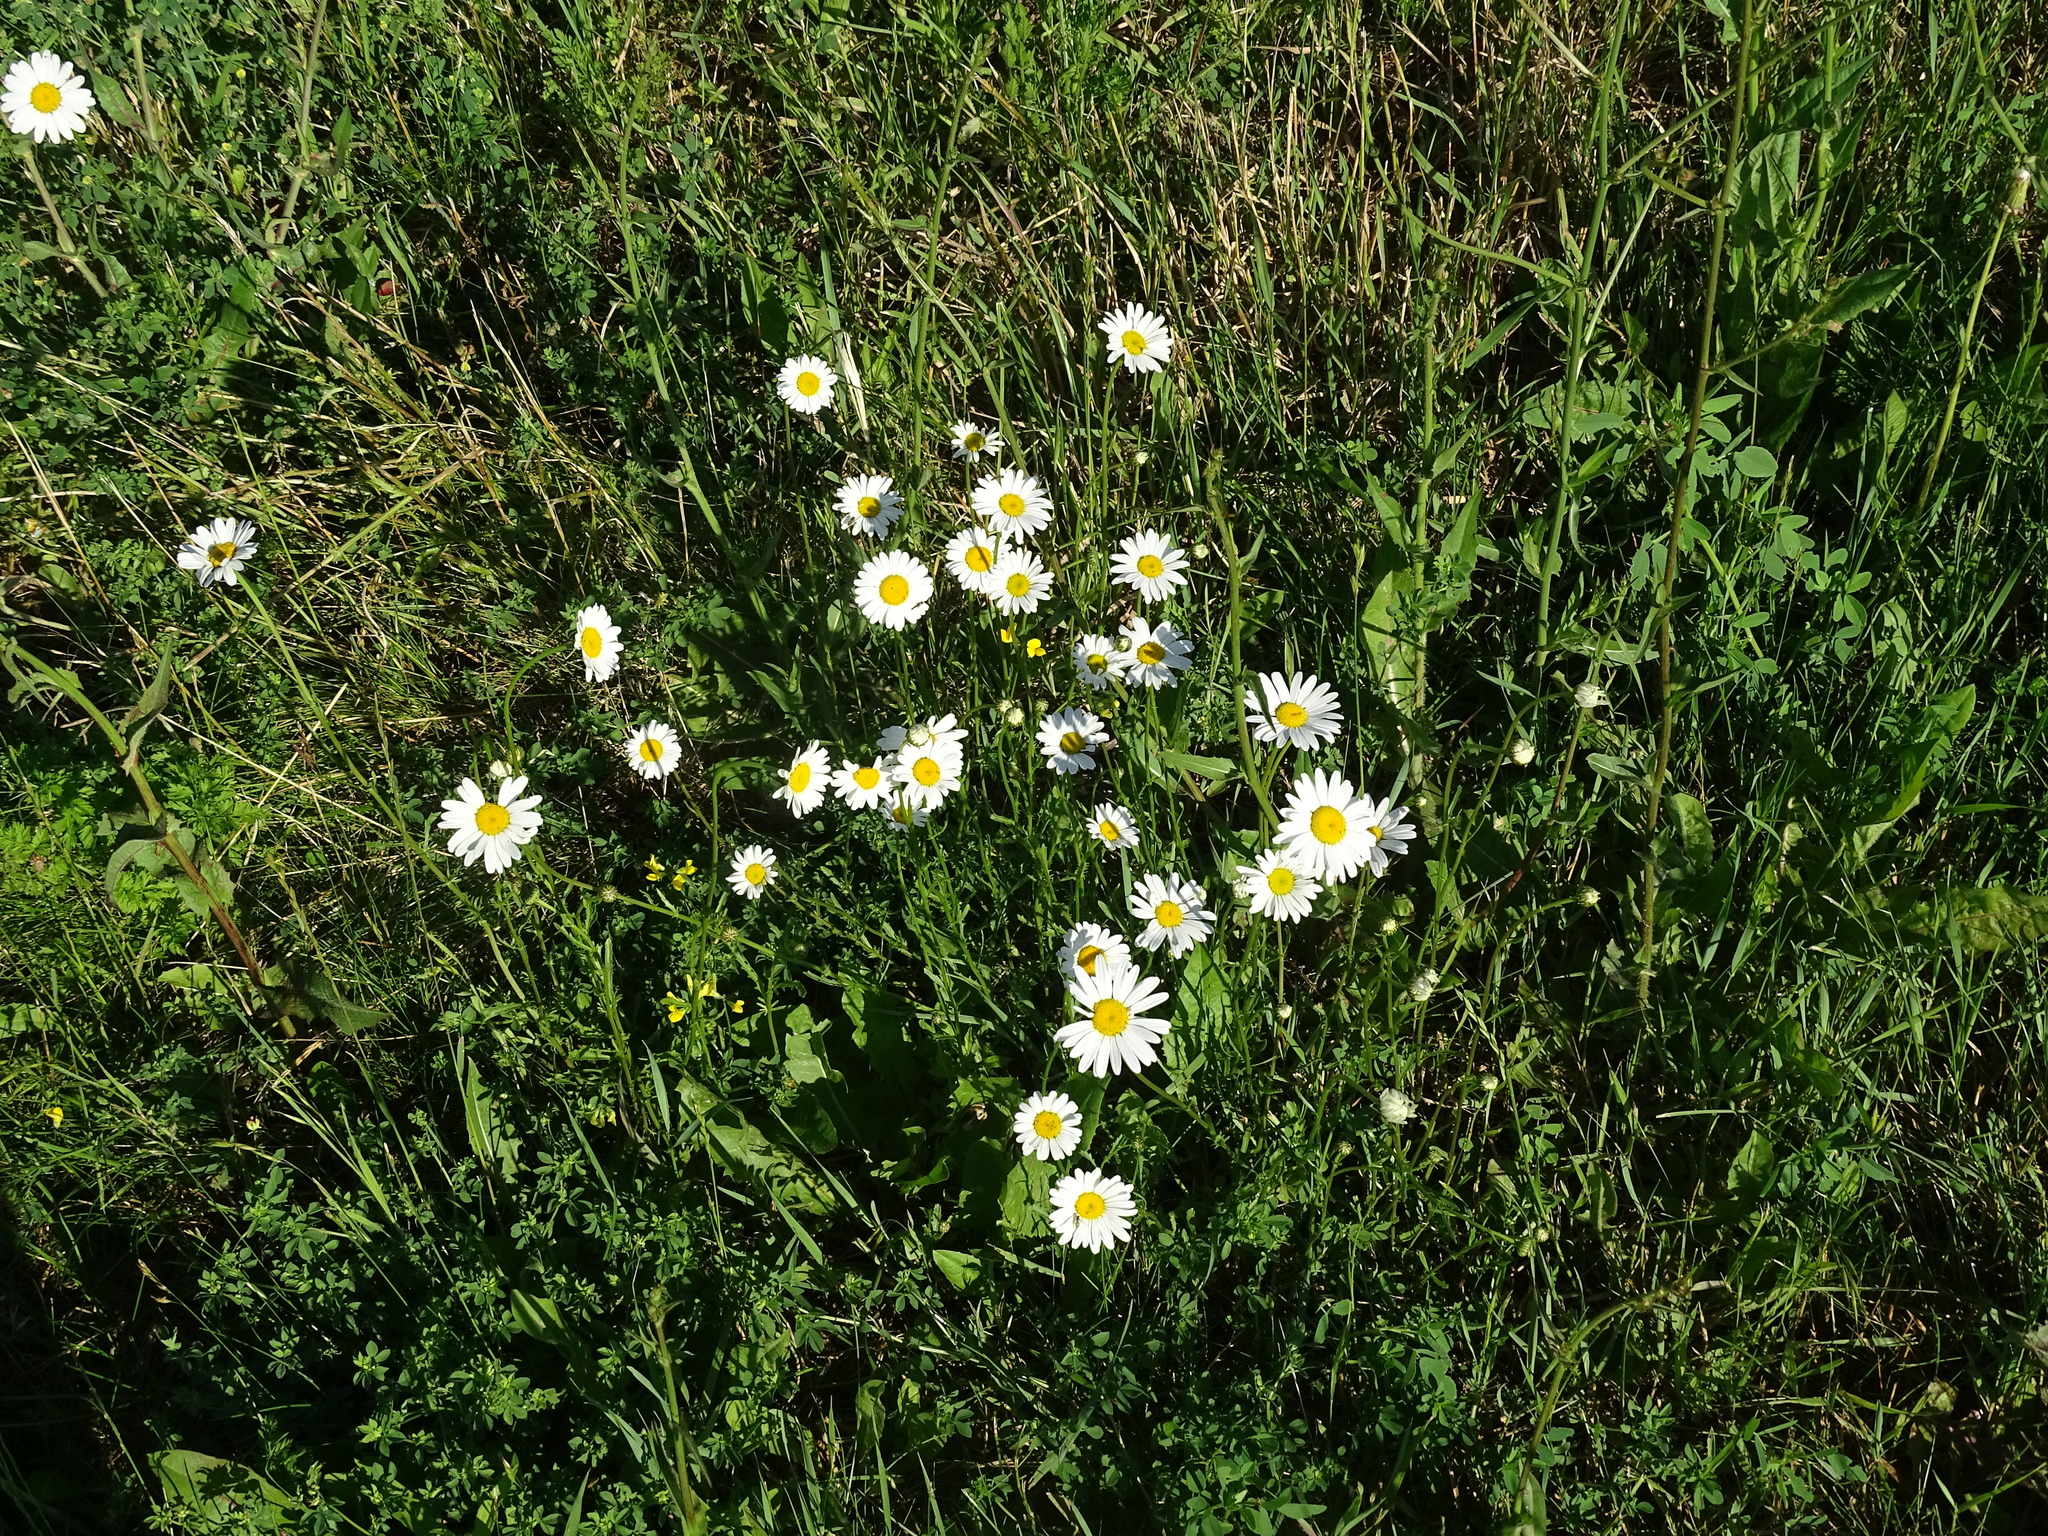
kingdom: Plantae
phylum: Tracheophyta
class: Magnoliopsida
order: Asterales
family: Asteraceae
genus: Leucanthemum
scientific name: Leucanthemum vulgare
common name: Oxeye daisy
